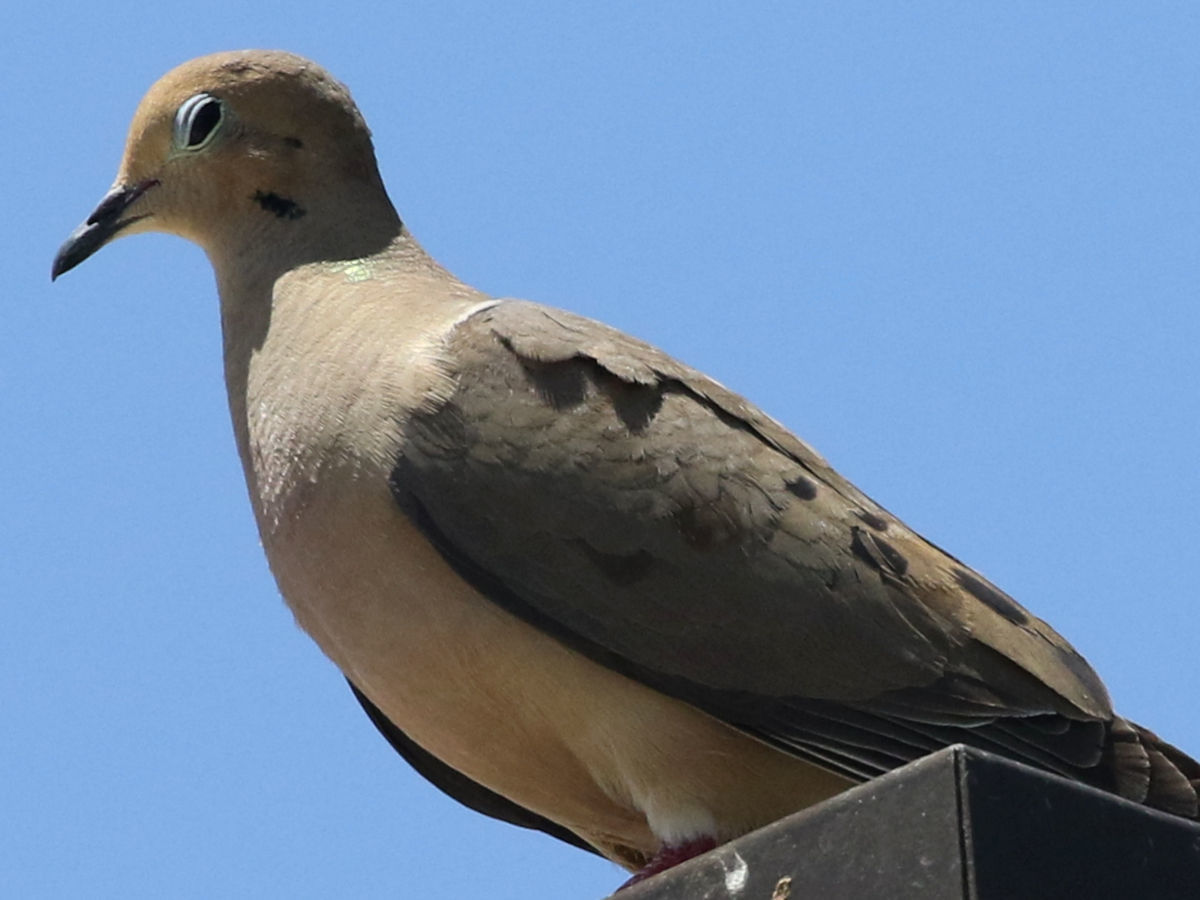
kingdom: Animalia
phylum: Chordata
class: Aves
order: Columbiformes
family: Columbidae
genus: Zenaida
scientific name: Zenaida macroura
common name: Mourning dove
